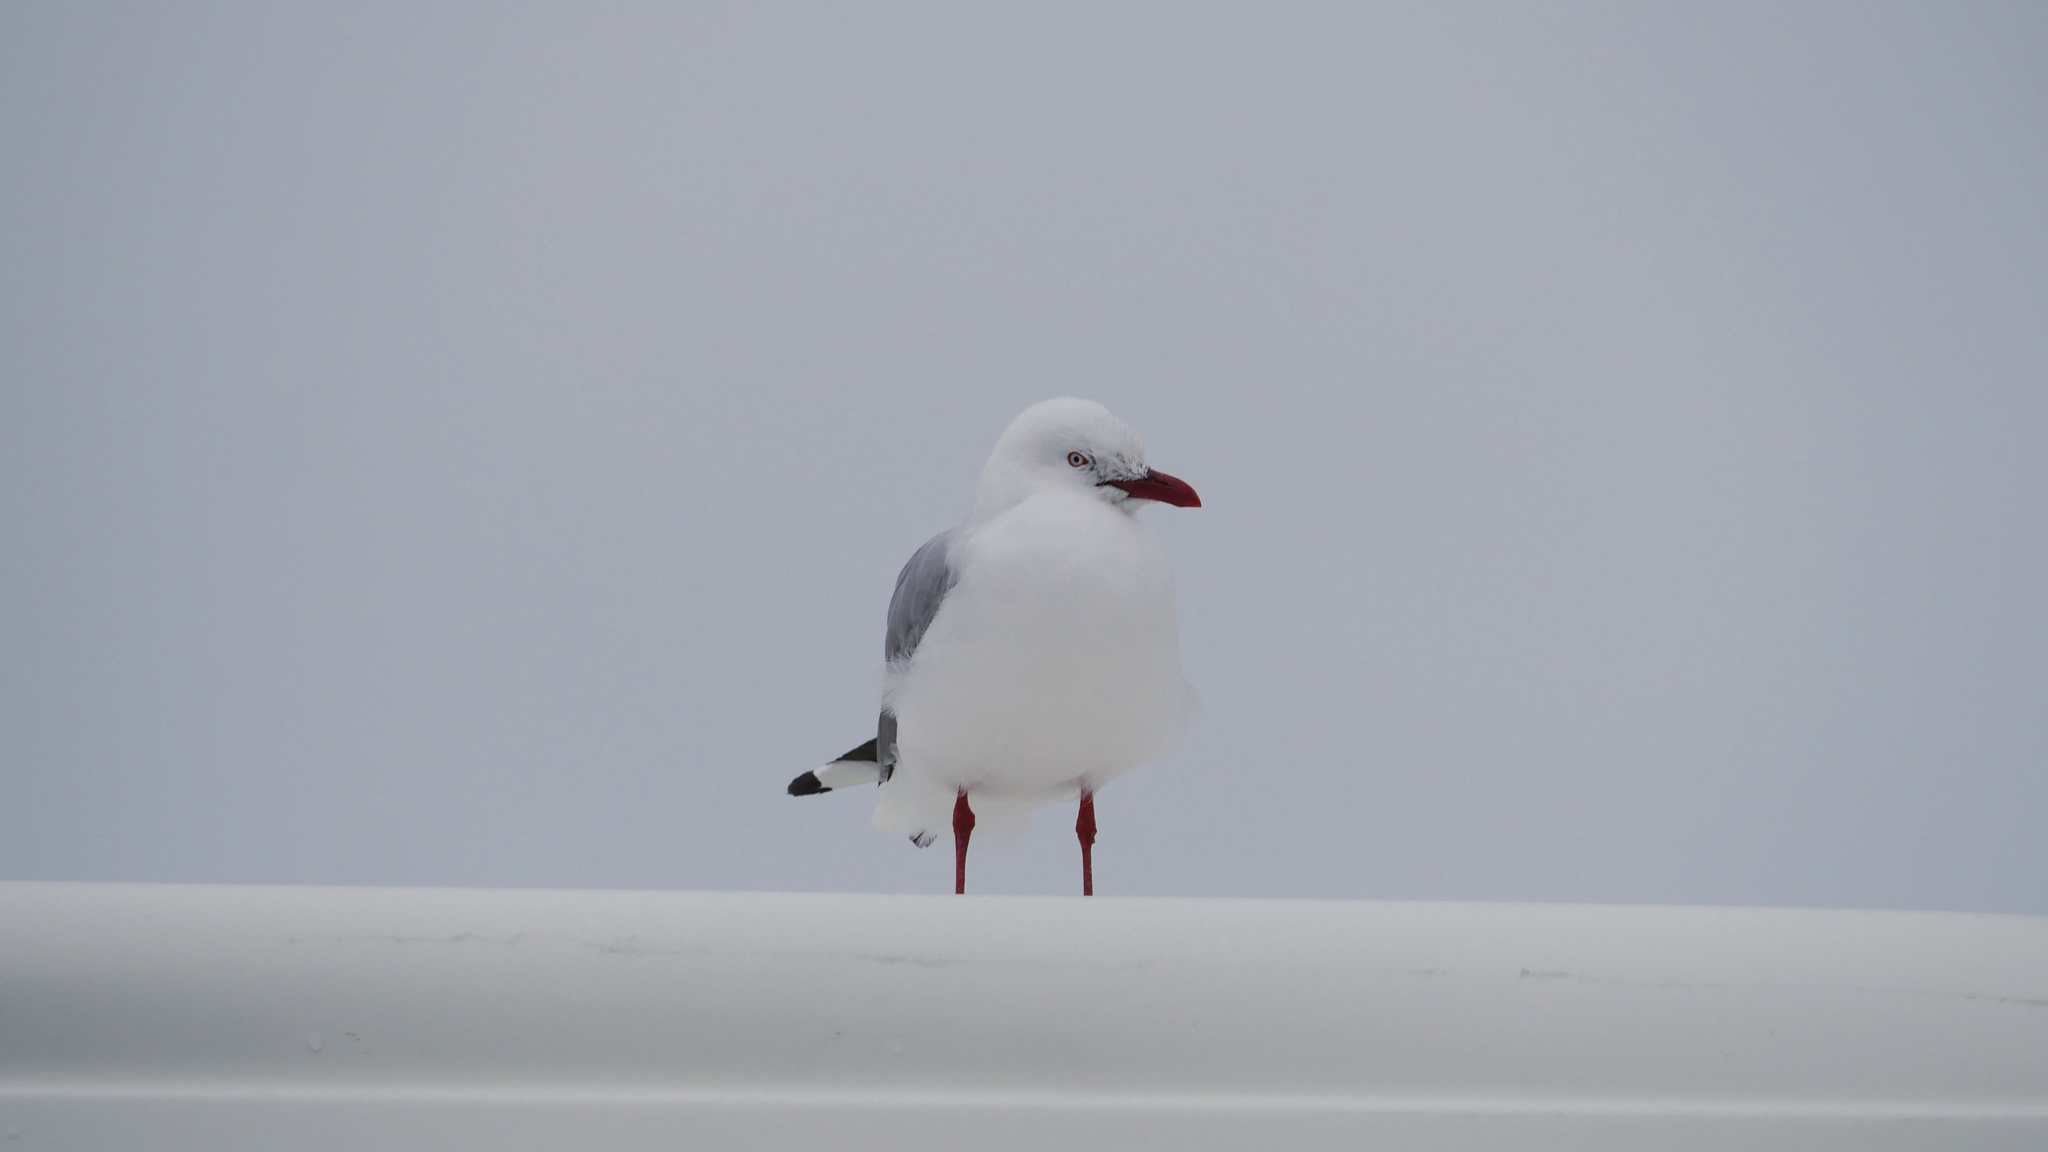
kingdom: Animalia
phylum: Chordata
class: Aves
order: Charadriiformes
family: Laridae
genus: Chroicocephalus
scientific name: Chroicocephalus novaehollandiae
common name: Silver gull
